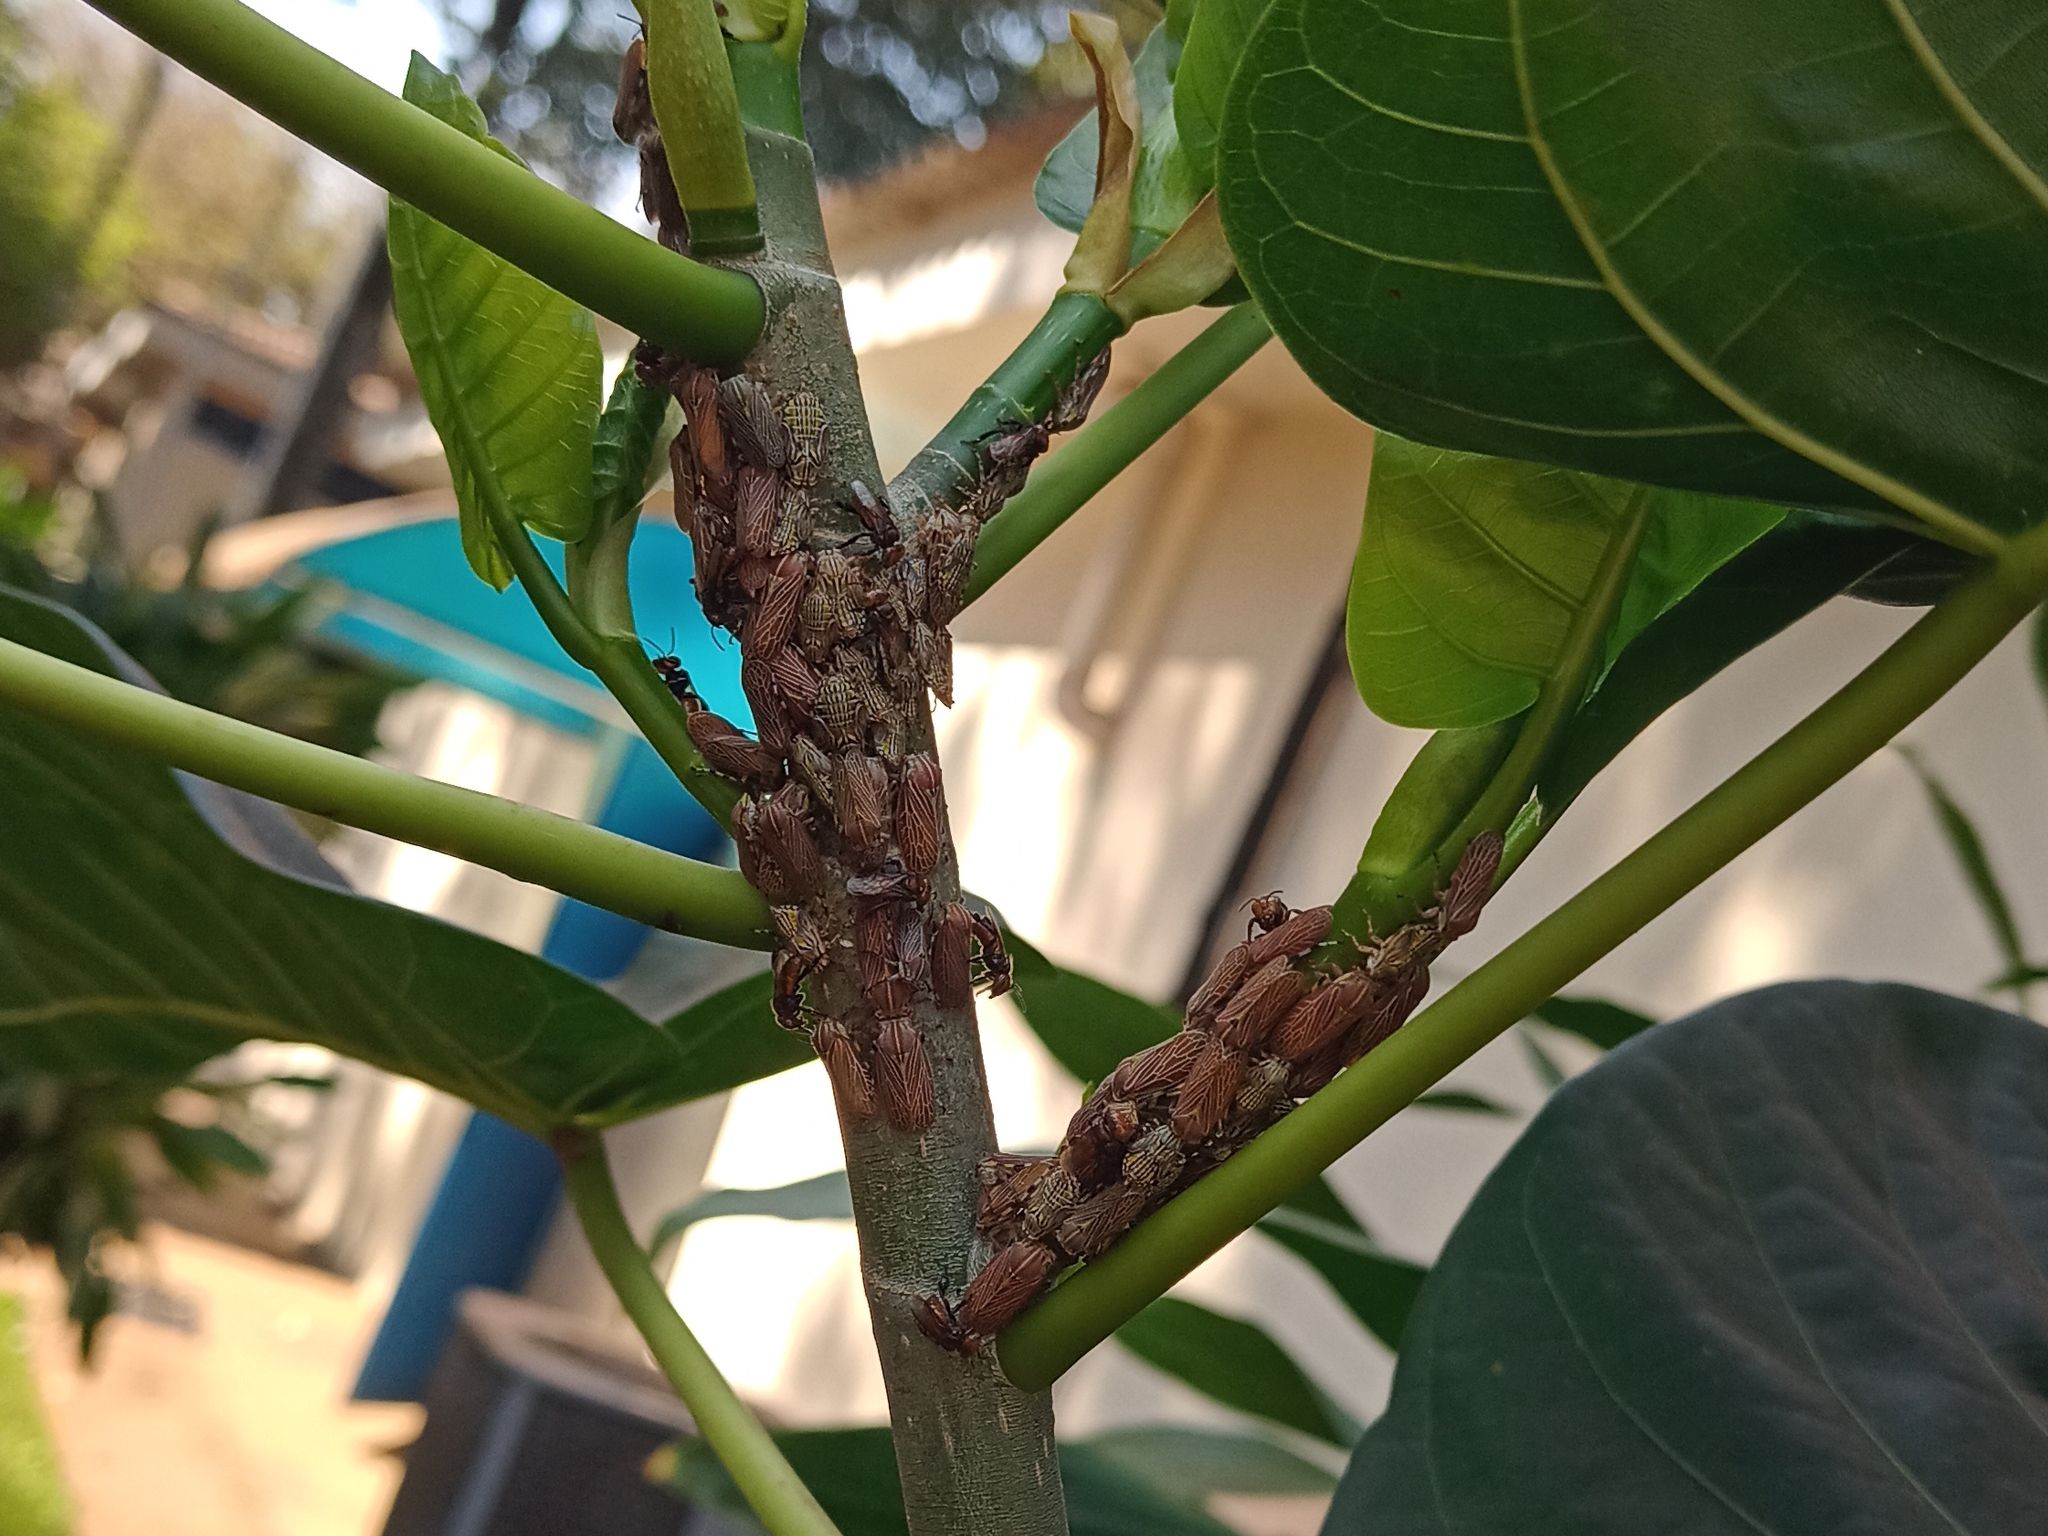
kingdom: Animalia
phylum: Arthropoda
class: Insecta
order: Hemiptera
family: Aetalionidae
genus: Aetalion
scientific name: Aetalion reticulatum
